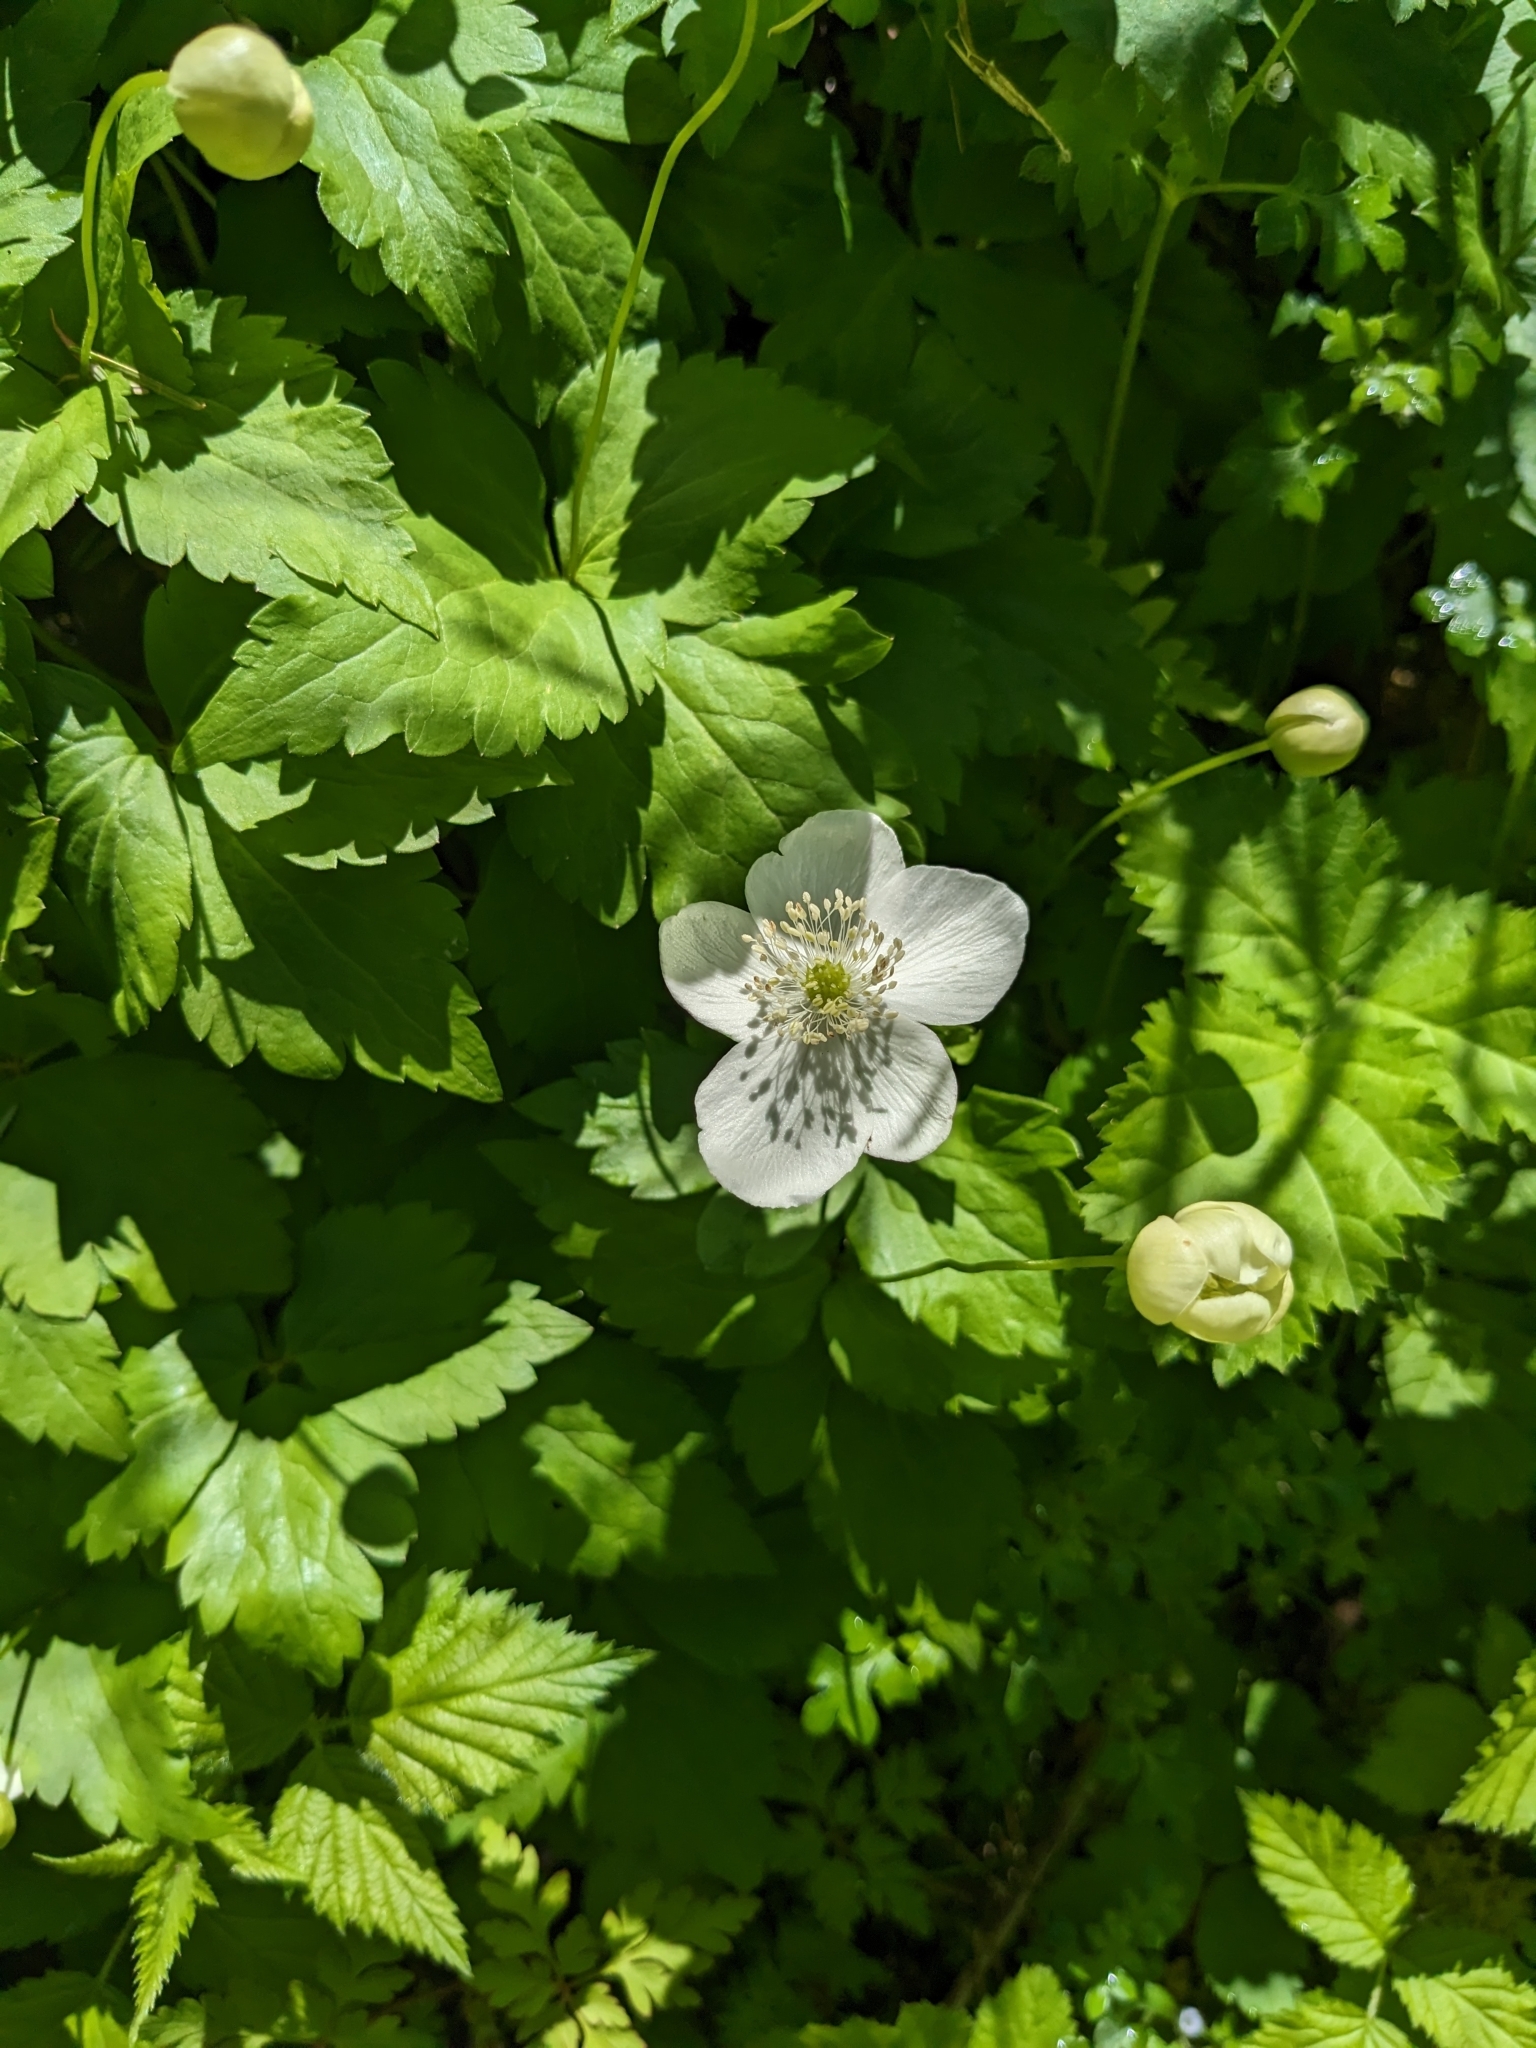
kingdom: Plantae
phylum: Tracheophyta
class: Magnoliopsida
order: Ranunculales
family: Ranunculaceae
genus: Anemonastrum
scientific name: Anemonastrum deltoideum
